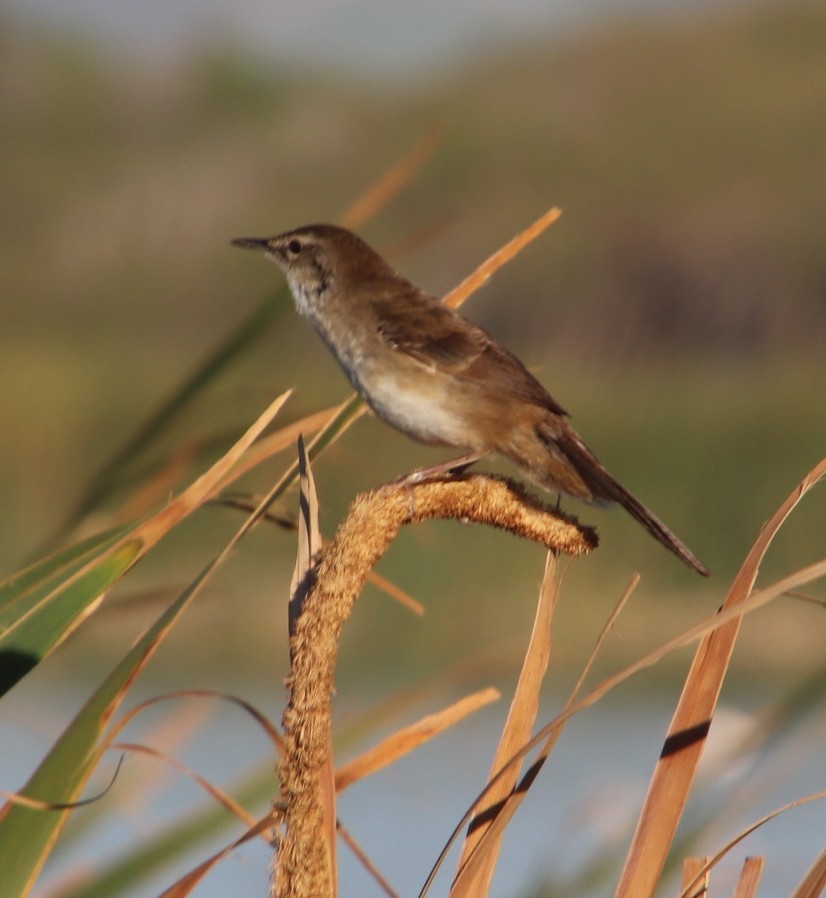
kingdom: Animalia
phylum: Chordata
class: Aves
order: Passeriformes
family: Locustellidae
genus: Bradypterus
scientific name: Bradypterus baboecala
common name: Little rush warbler
